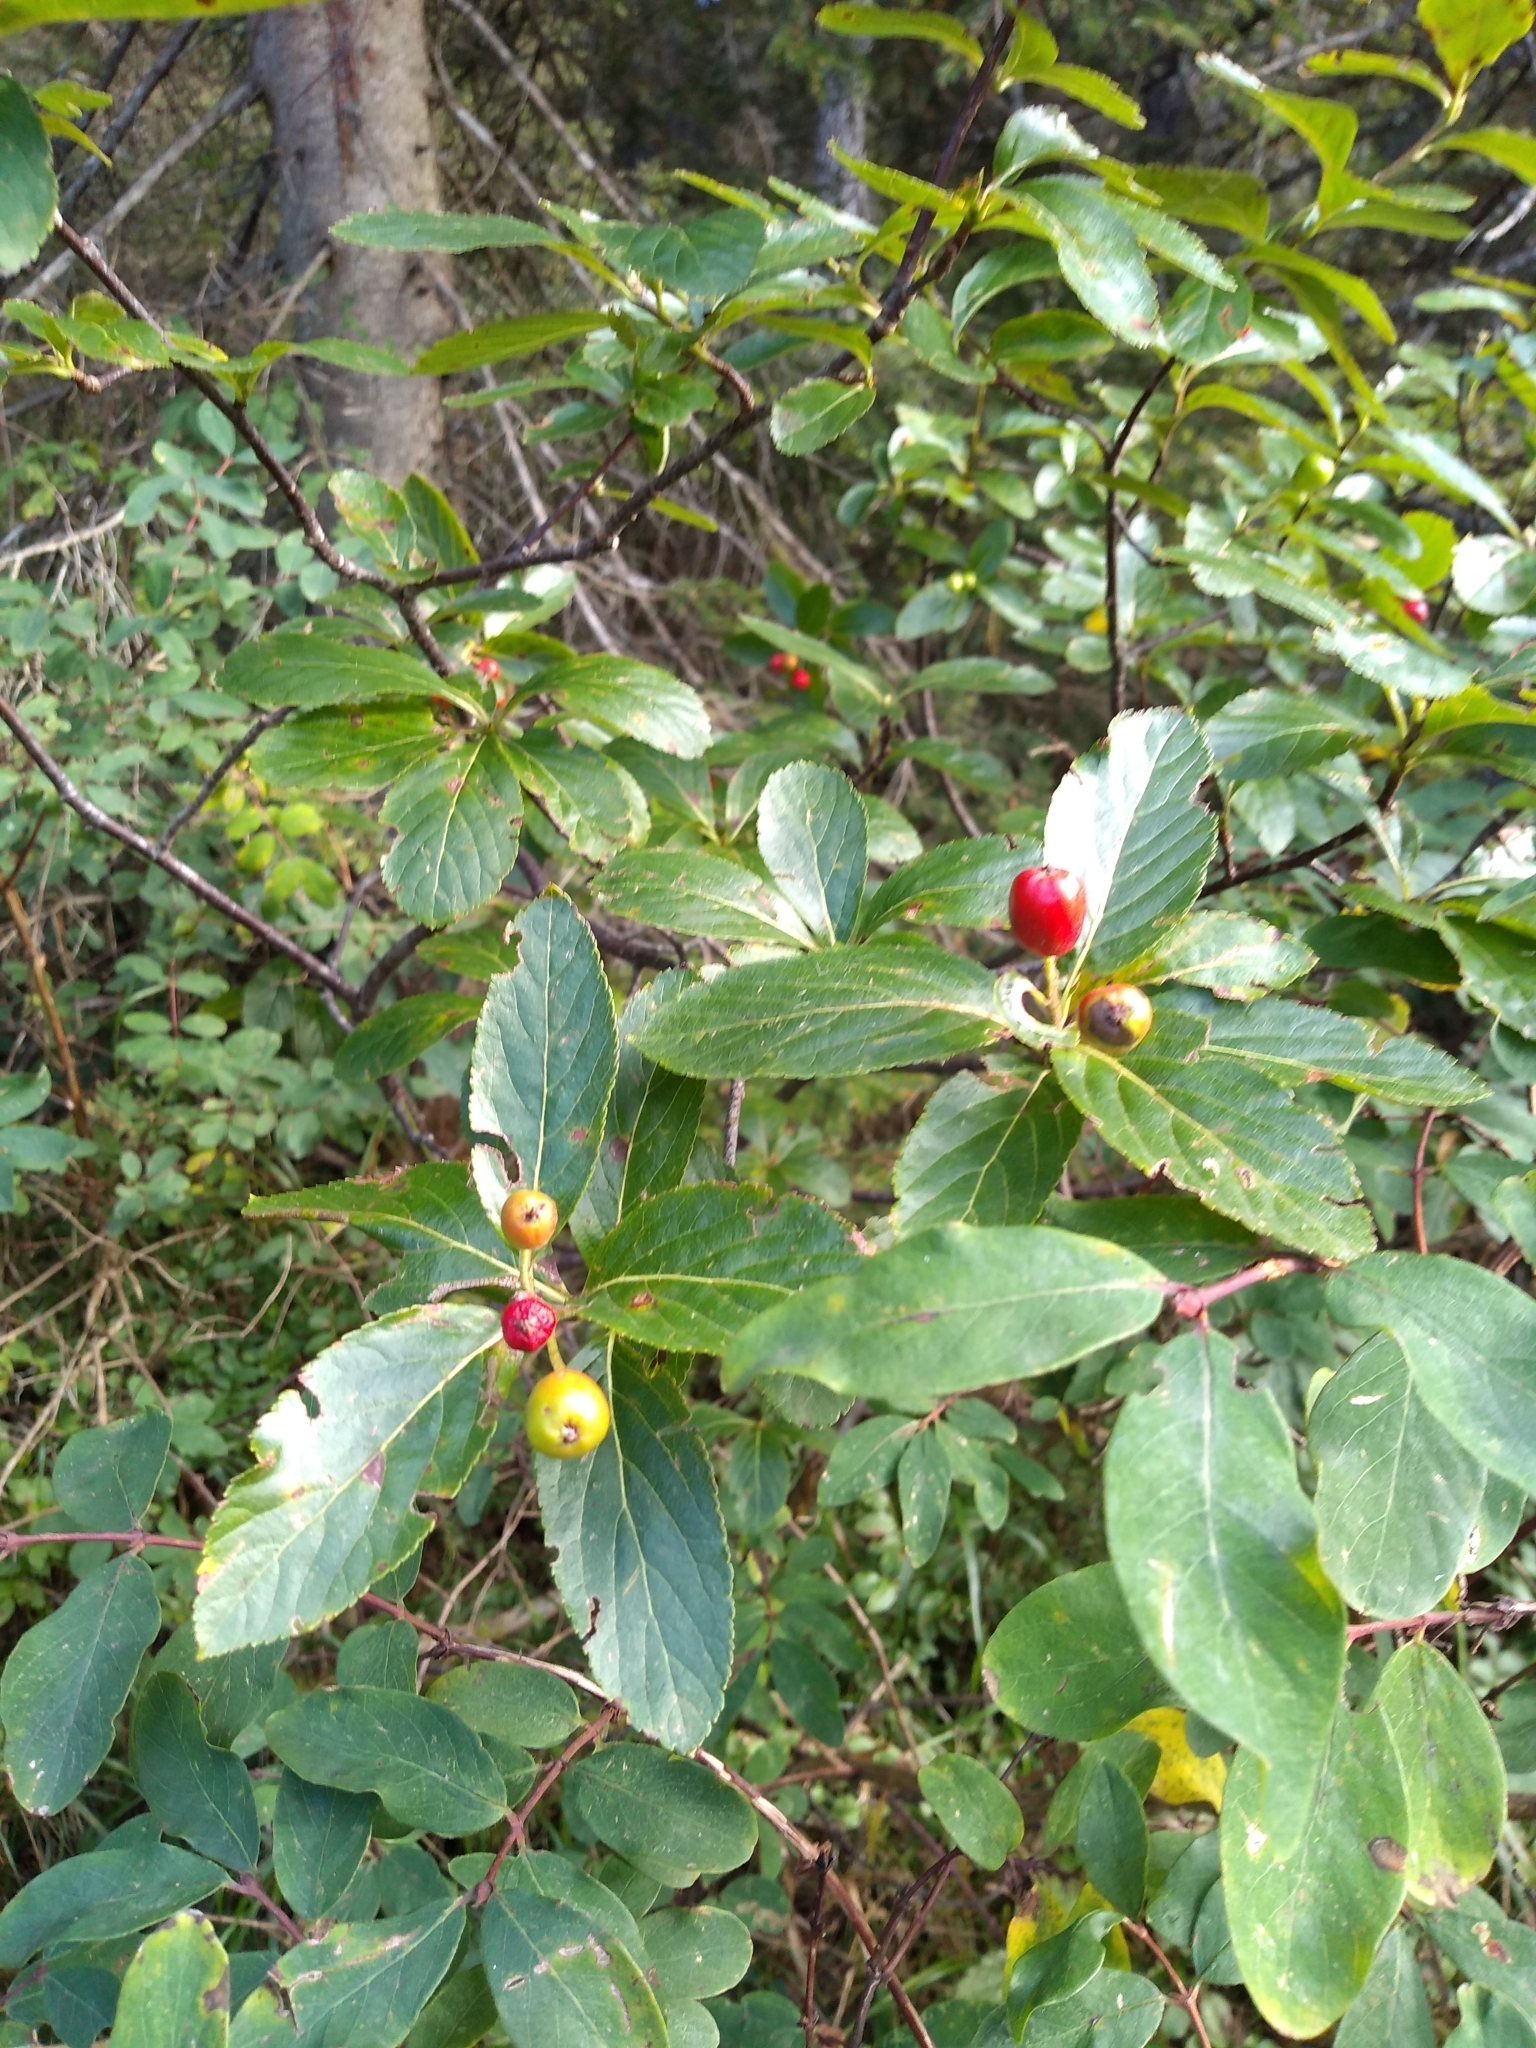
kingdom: Plantae
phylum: Tracheophyta
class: Magnoliopsida
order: Rosales
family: Rosaceae
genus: Chamaemespilus
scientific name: Chamaemespilus alpina
